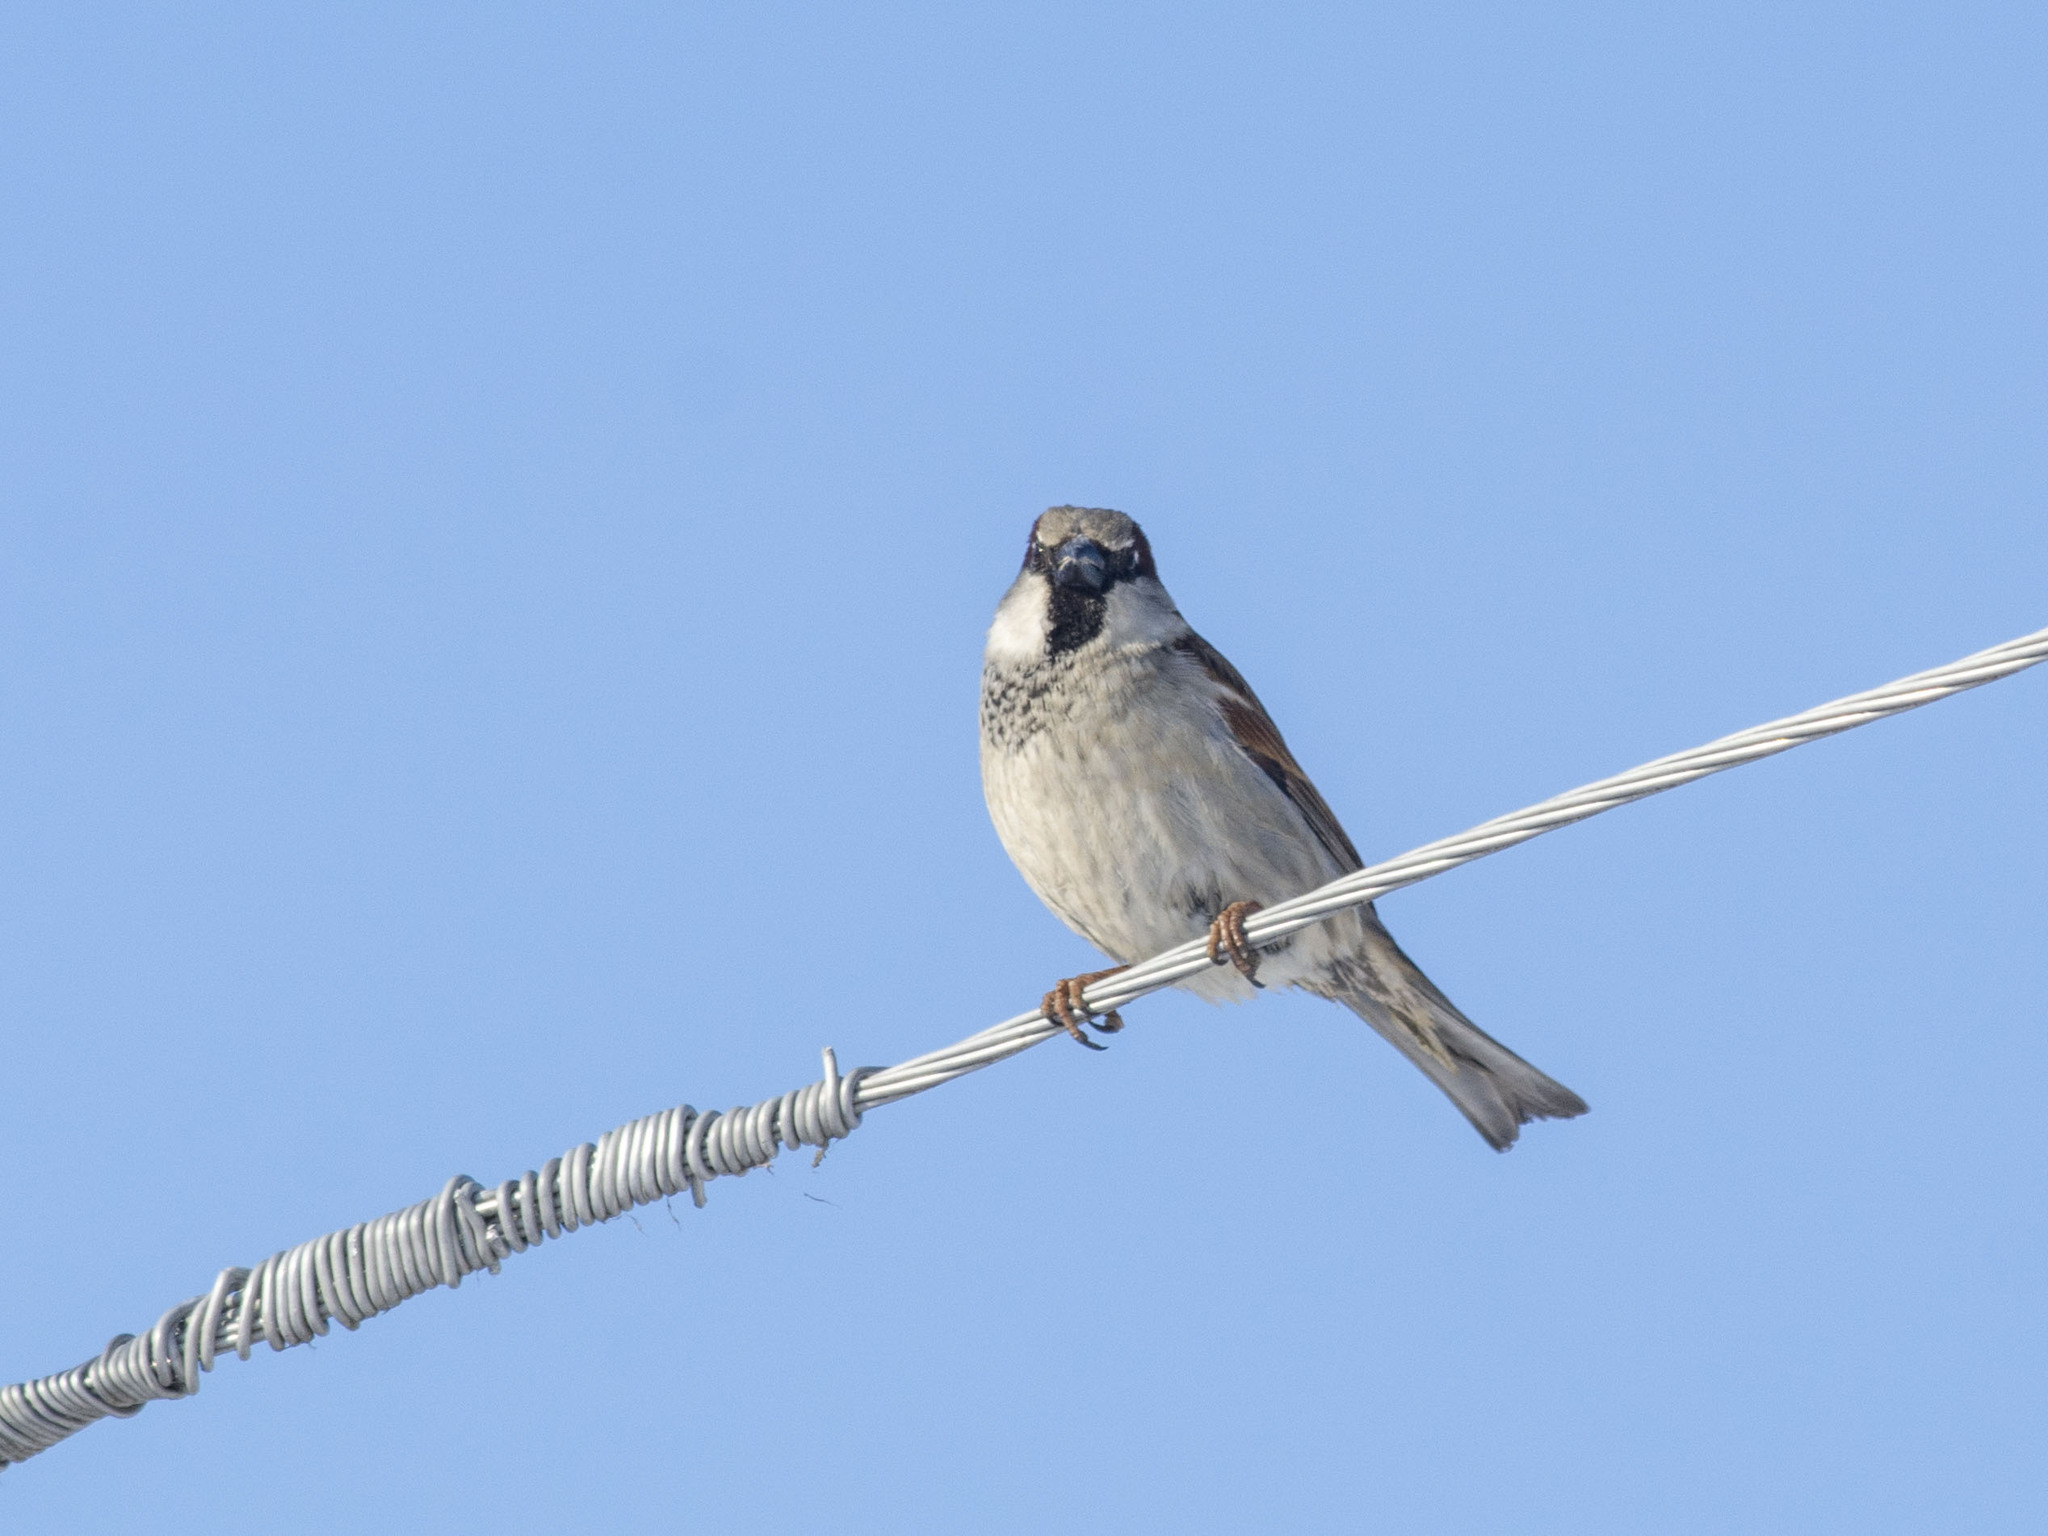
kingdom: Animalia
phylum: Chordata
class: Aves
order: Passeriformes
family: Passeridae
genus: Passer
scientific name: Passer domesticus
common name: House sparrow
